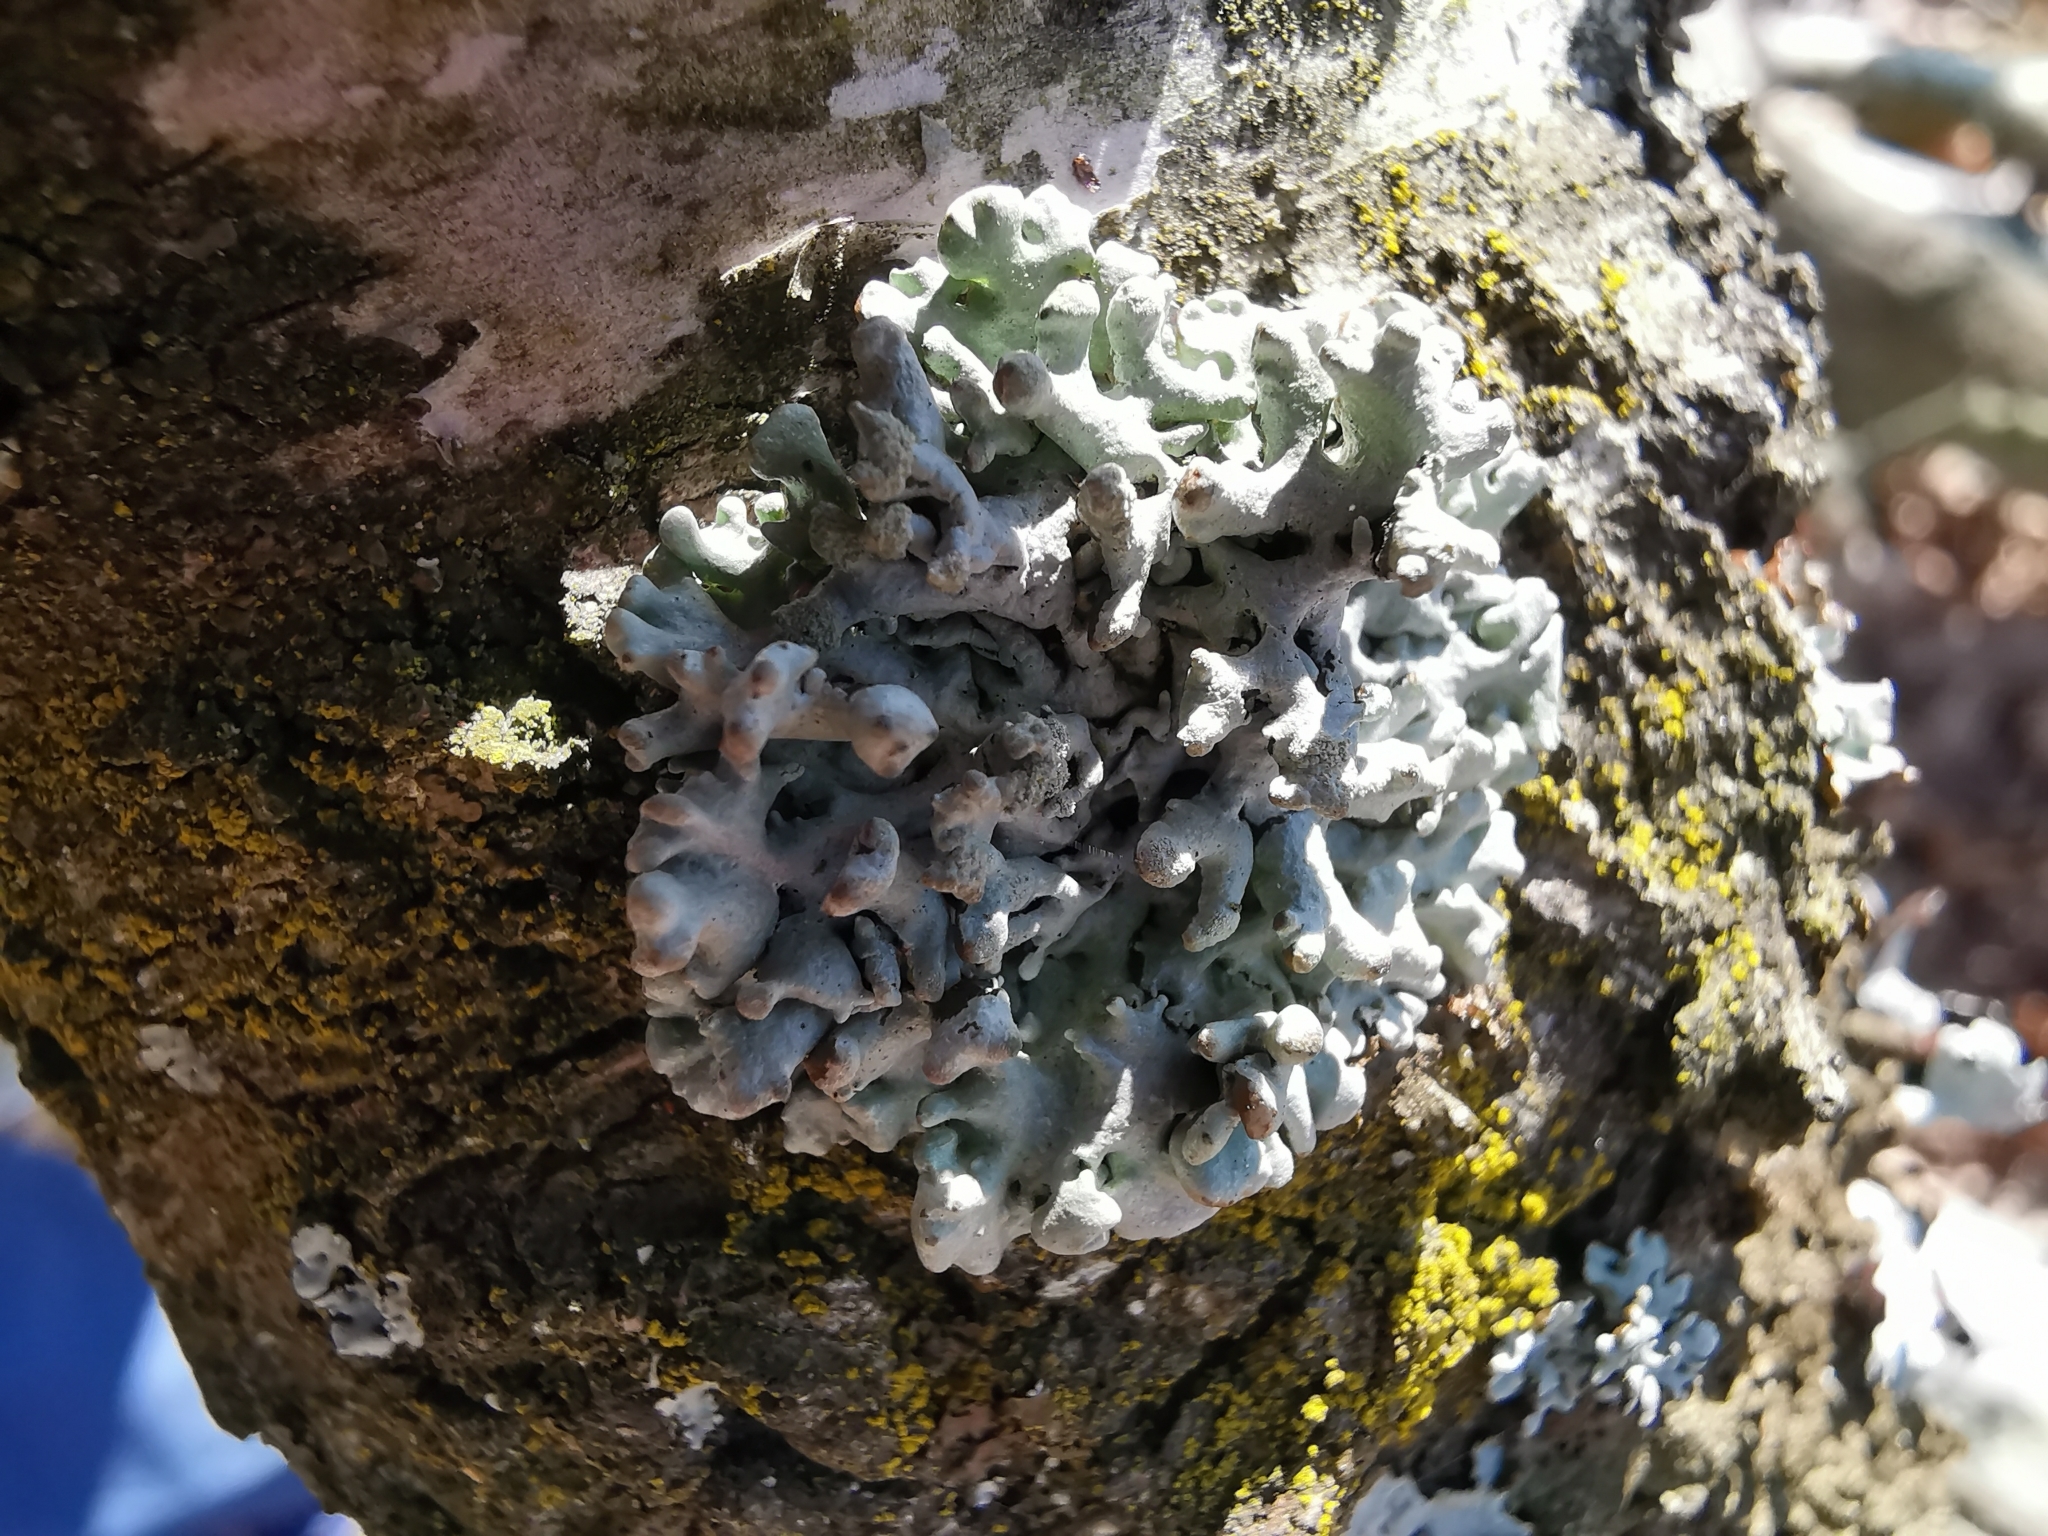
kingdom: Fungi
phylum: Ascomycota
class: Lecanoromycetes
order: Lecanorales
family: Parmeliaceae
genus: Hypogymnia
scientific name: Hypogymnia tubulosa
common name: Powder-headed tube lichen
